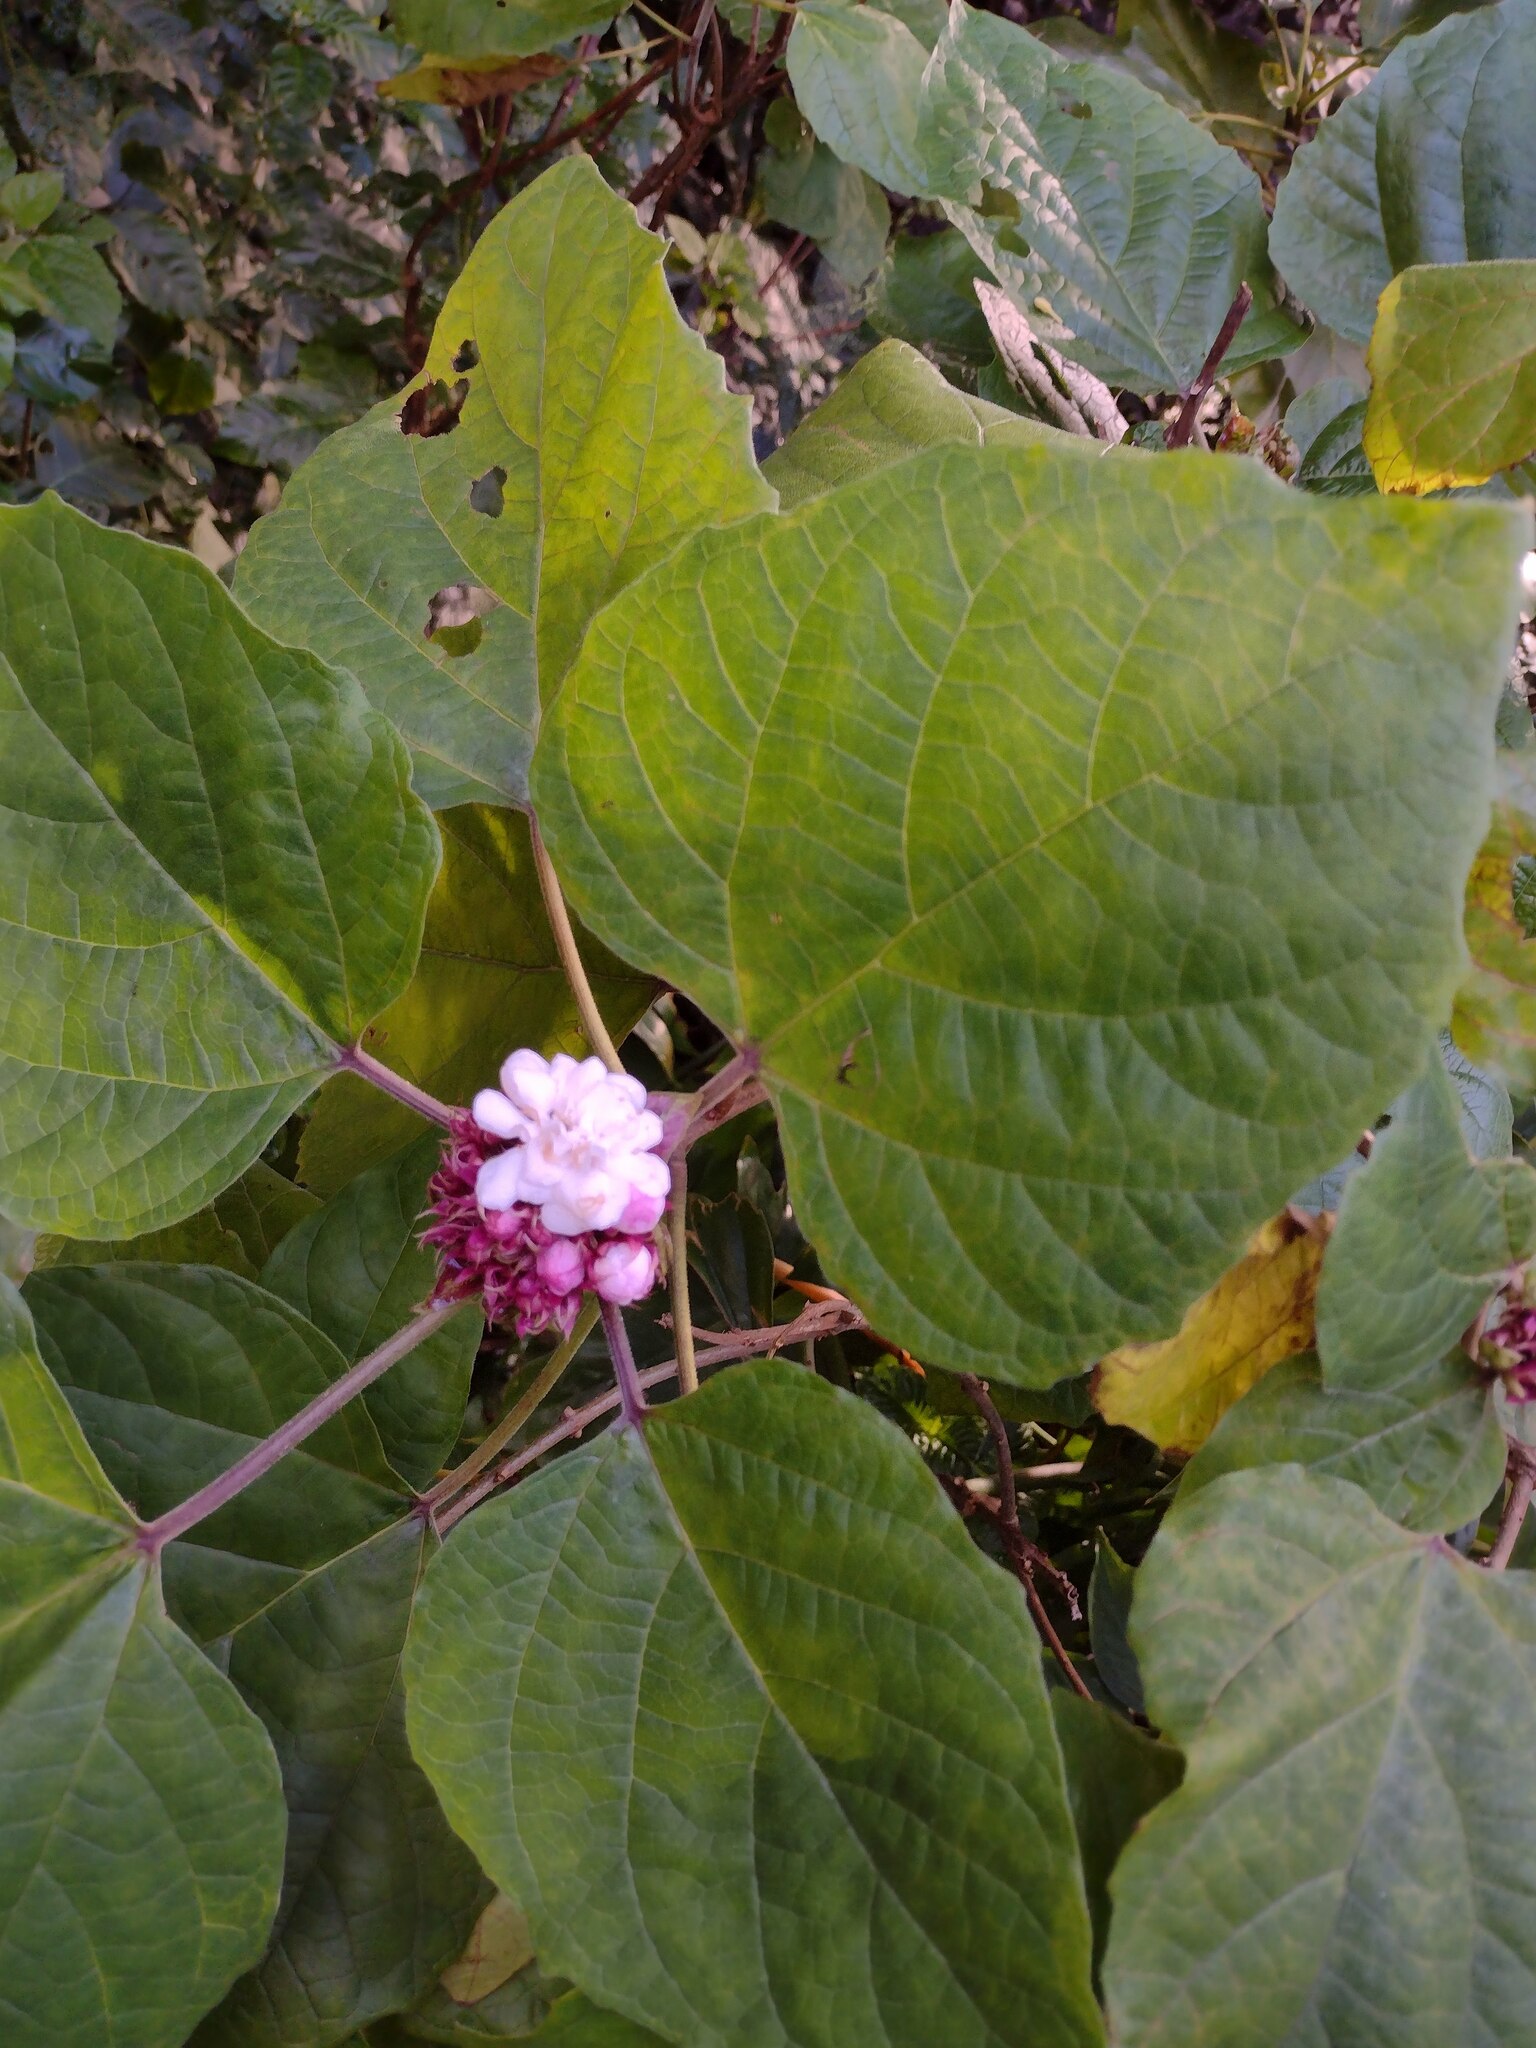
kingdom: Plantae
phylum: Tracheophyta
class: Magnoliopsida
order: Lamiales
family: Lamiaceae
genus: Clerodendrum
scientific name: Clerodendrum chinense
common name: Stickbush
